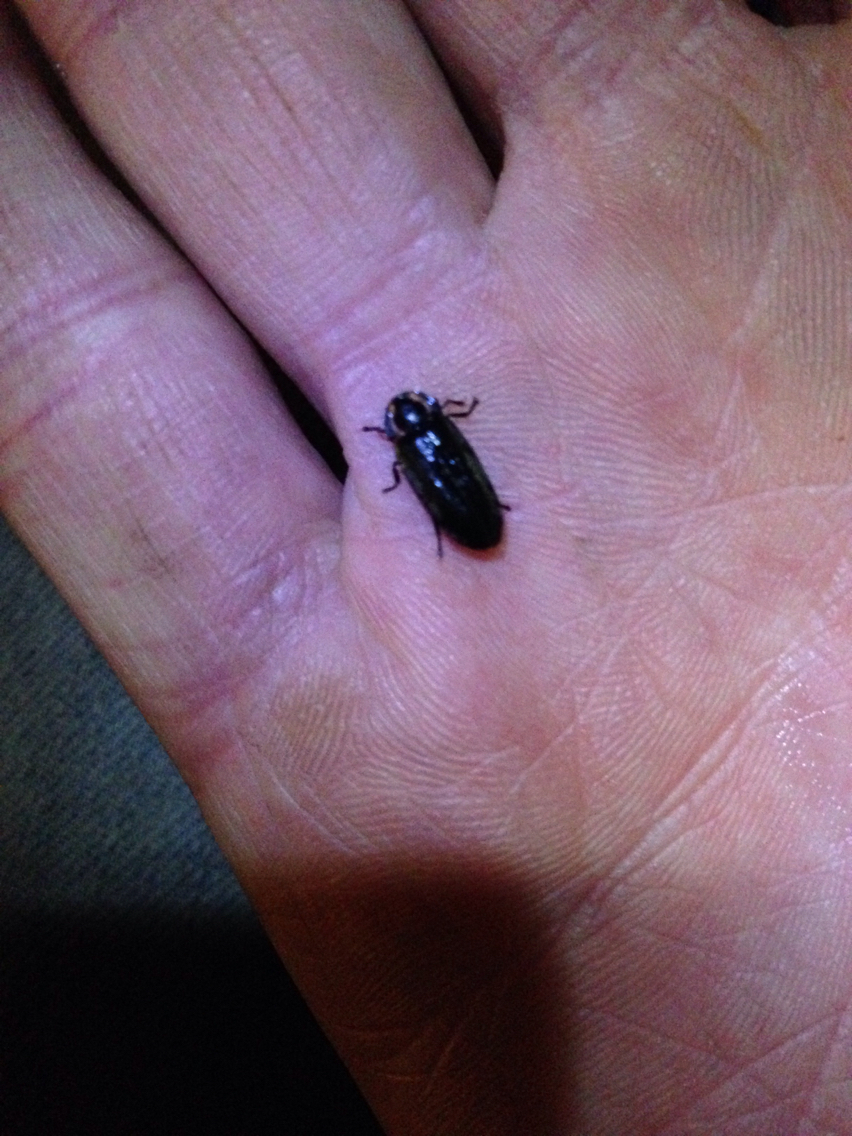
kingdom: Animalia
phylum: Arthropoda
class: Insecta
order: Coleoptera
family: Lampyridae
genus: Photinus
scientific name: Photinus corrusca
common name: Winter firefly
